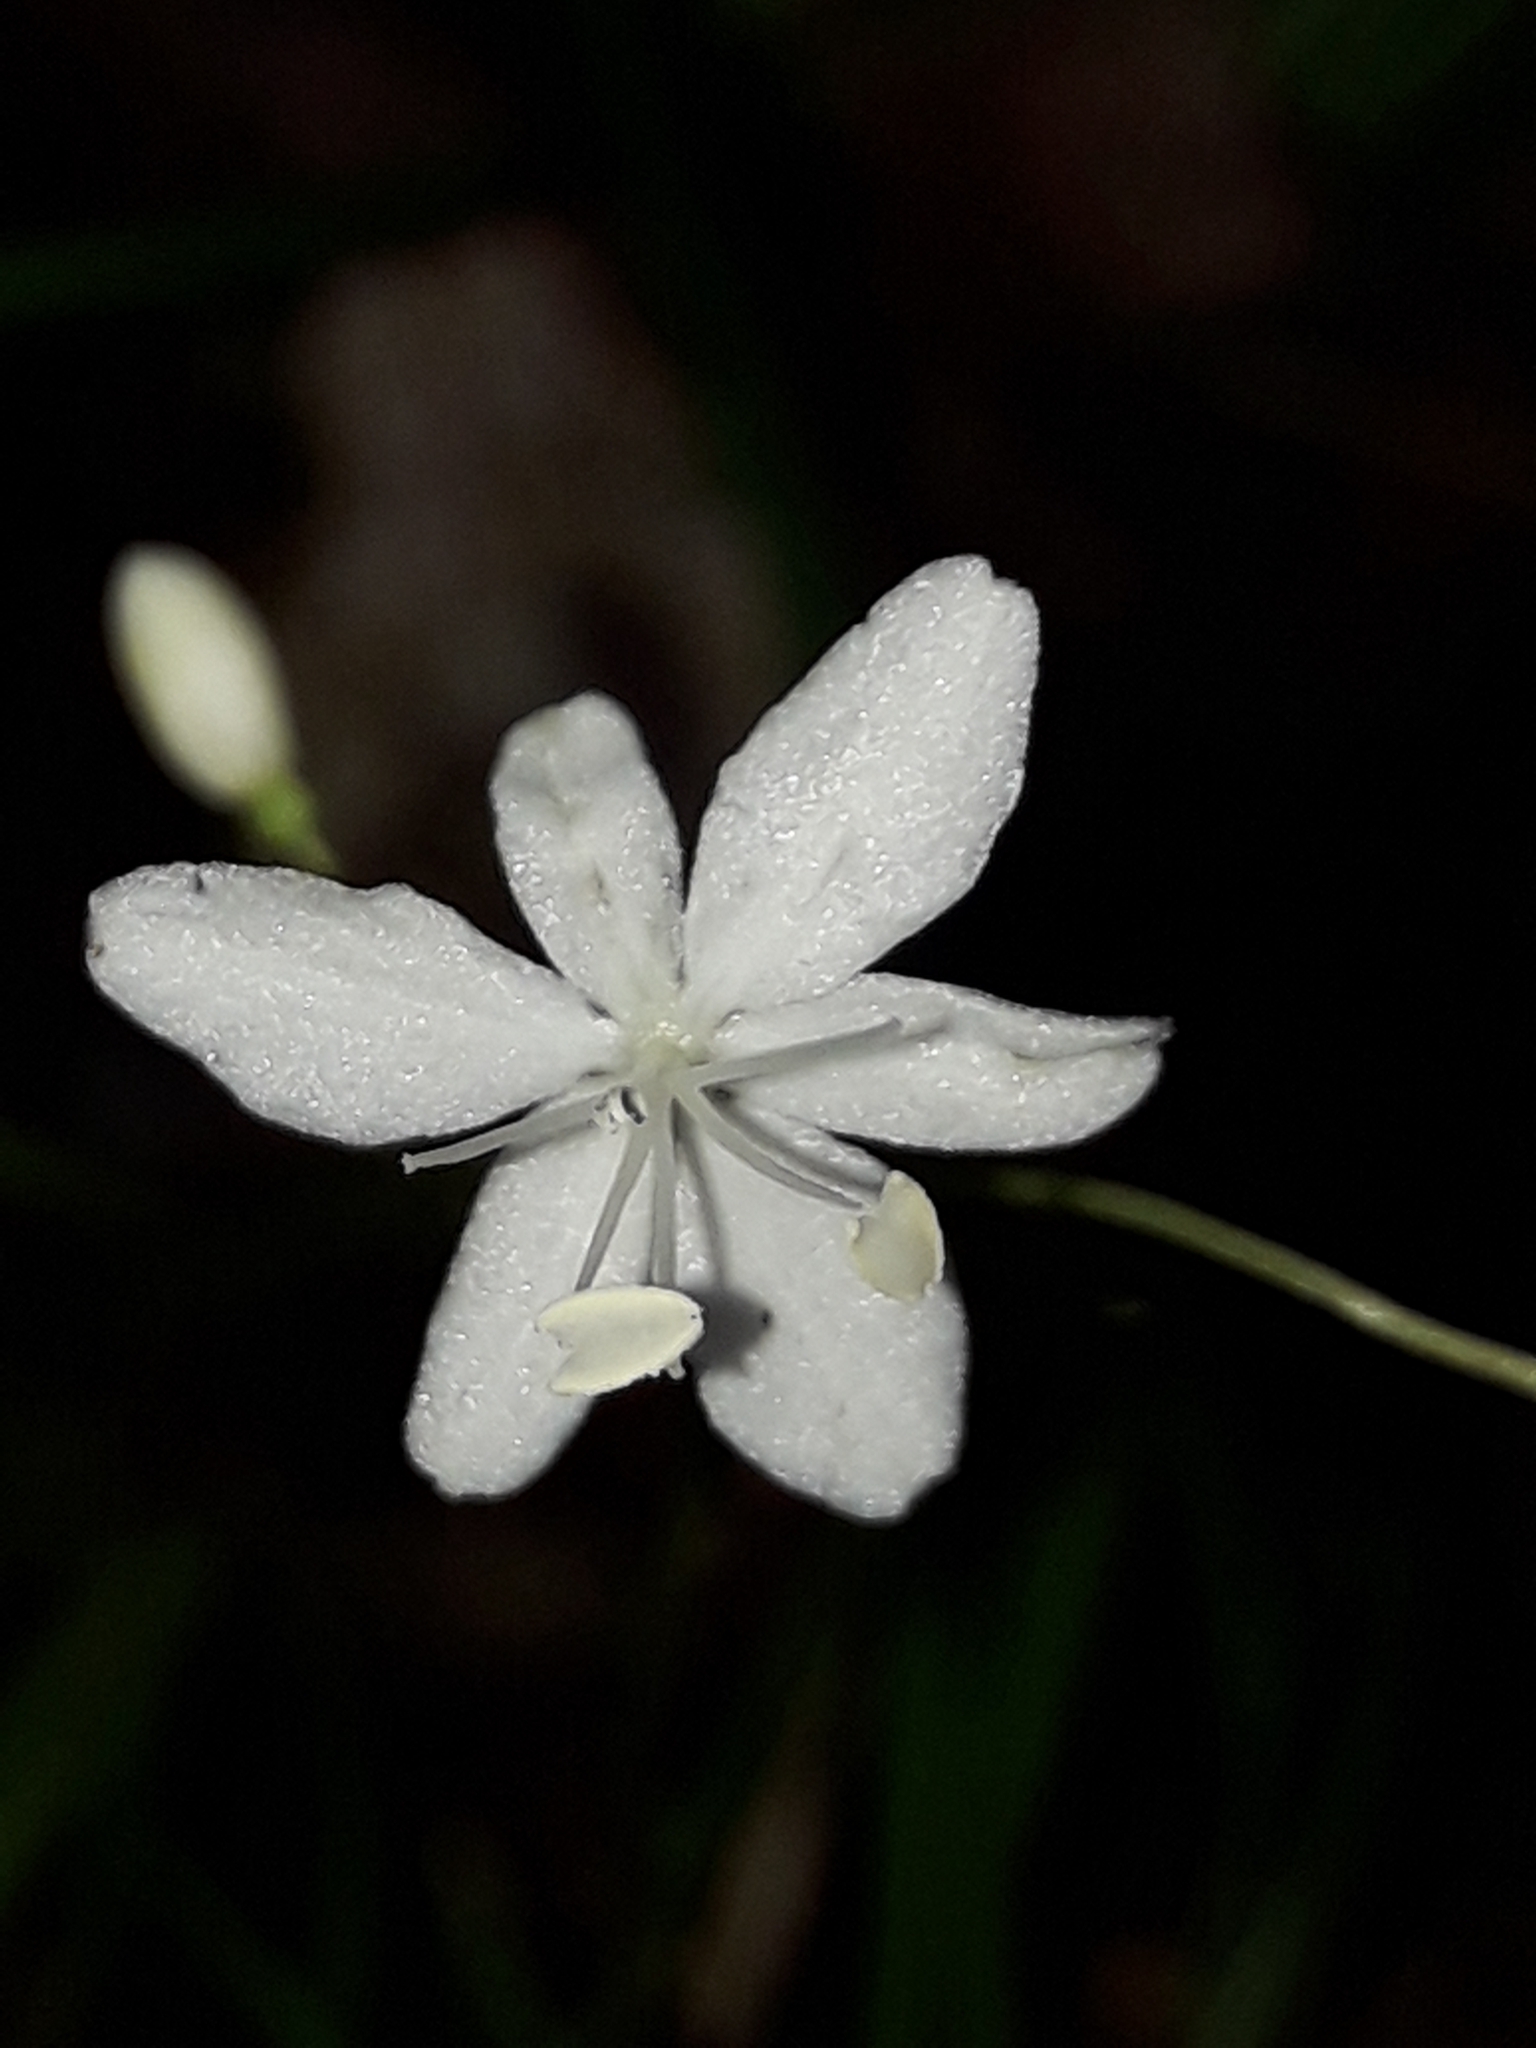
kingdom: Plantae
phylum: Tracheophyta
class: Liliopsida
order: Asparagales
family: Iridaceae
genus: Libertia
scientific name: Libertia micrantha
